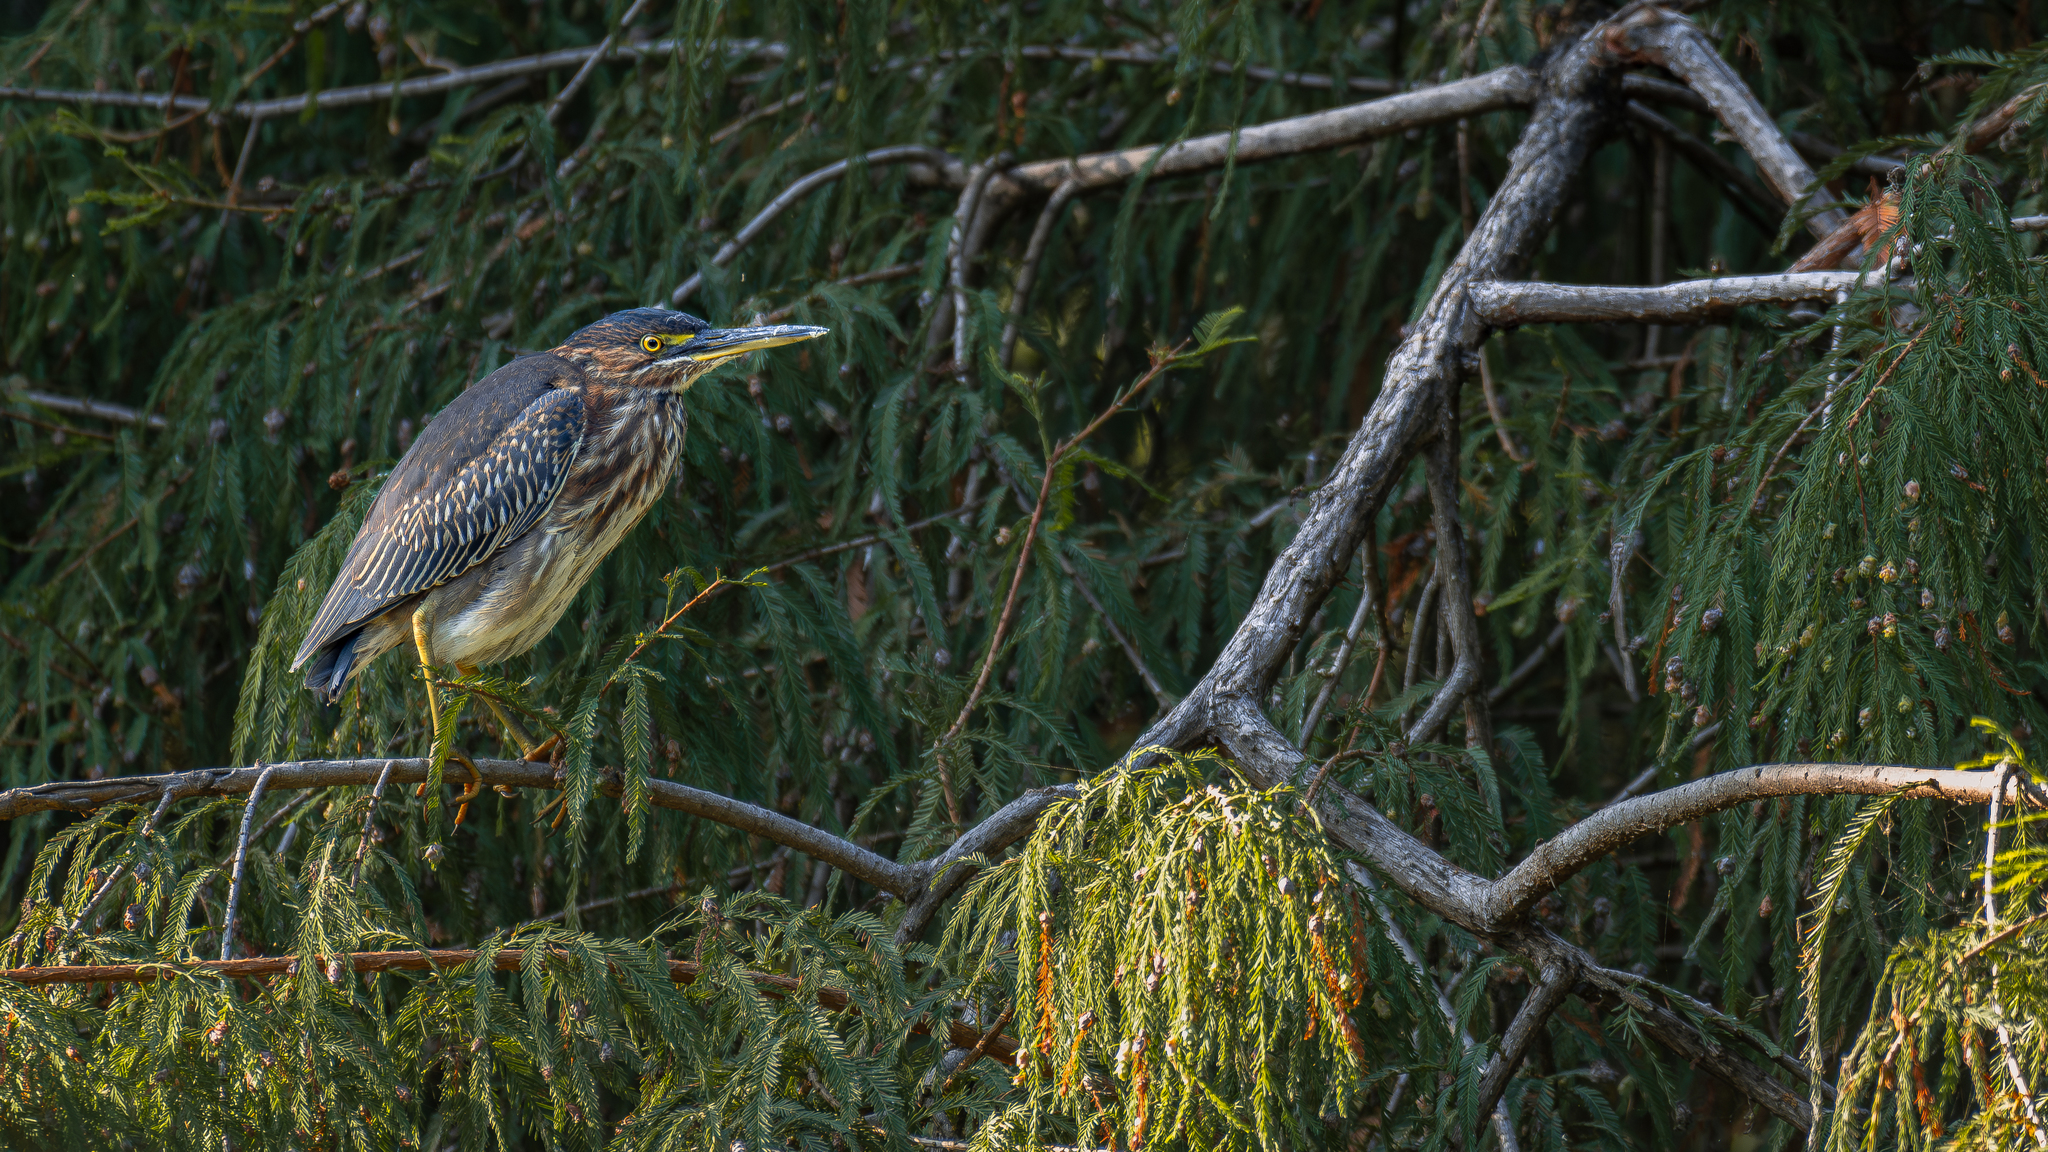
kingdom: Animalia
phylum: Chordata
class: Aves
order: Pelecaniformes
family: Ardeidae
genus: Butorides
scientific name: Butorides virescens
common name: Green heron
